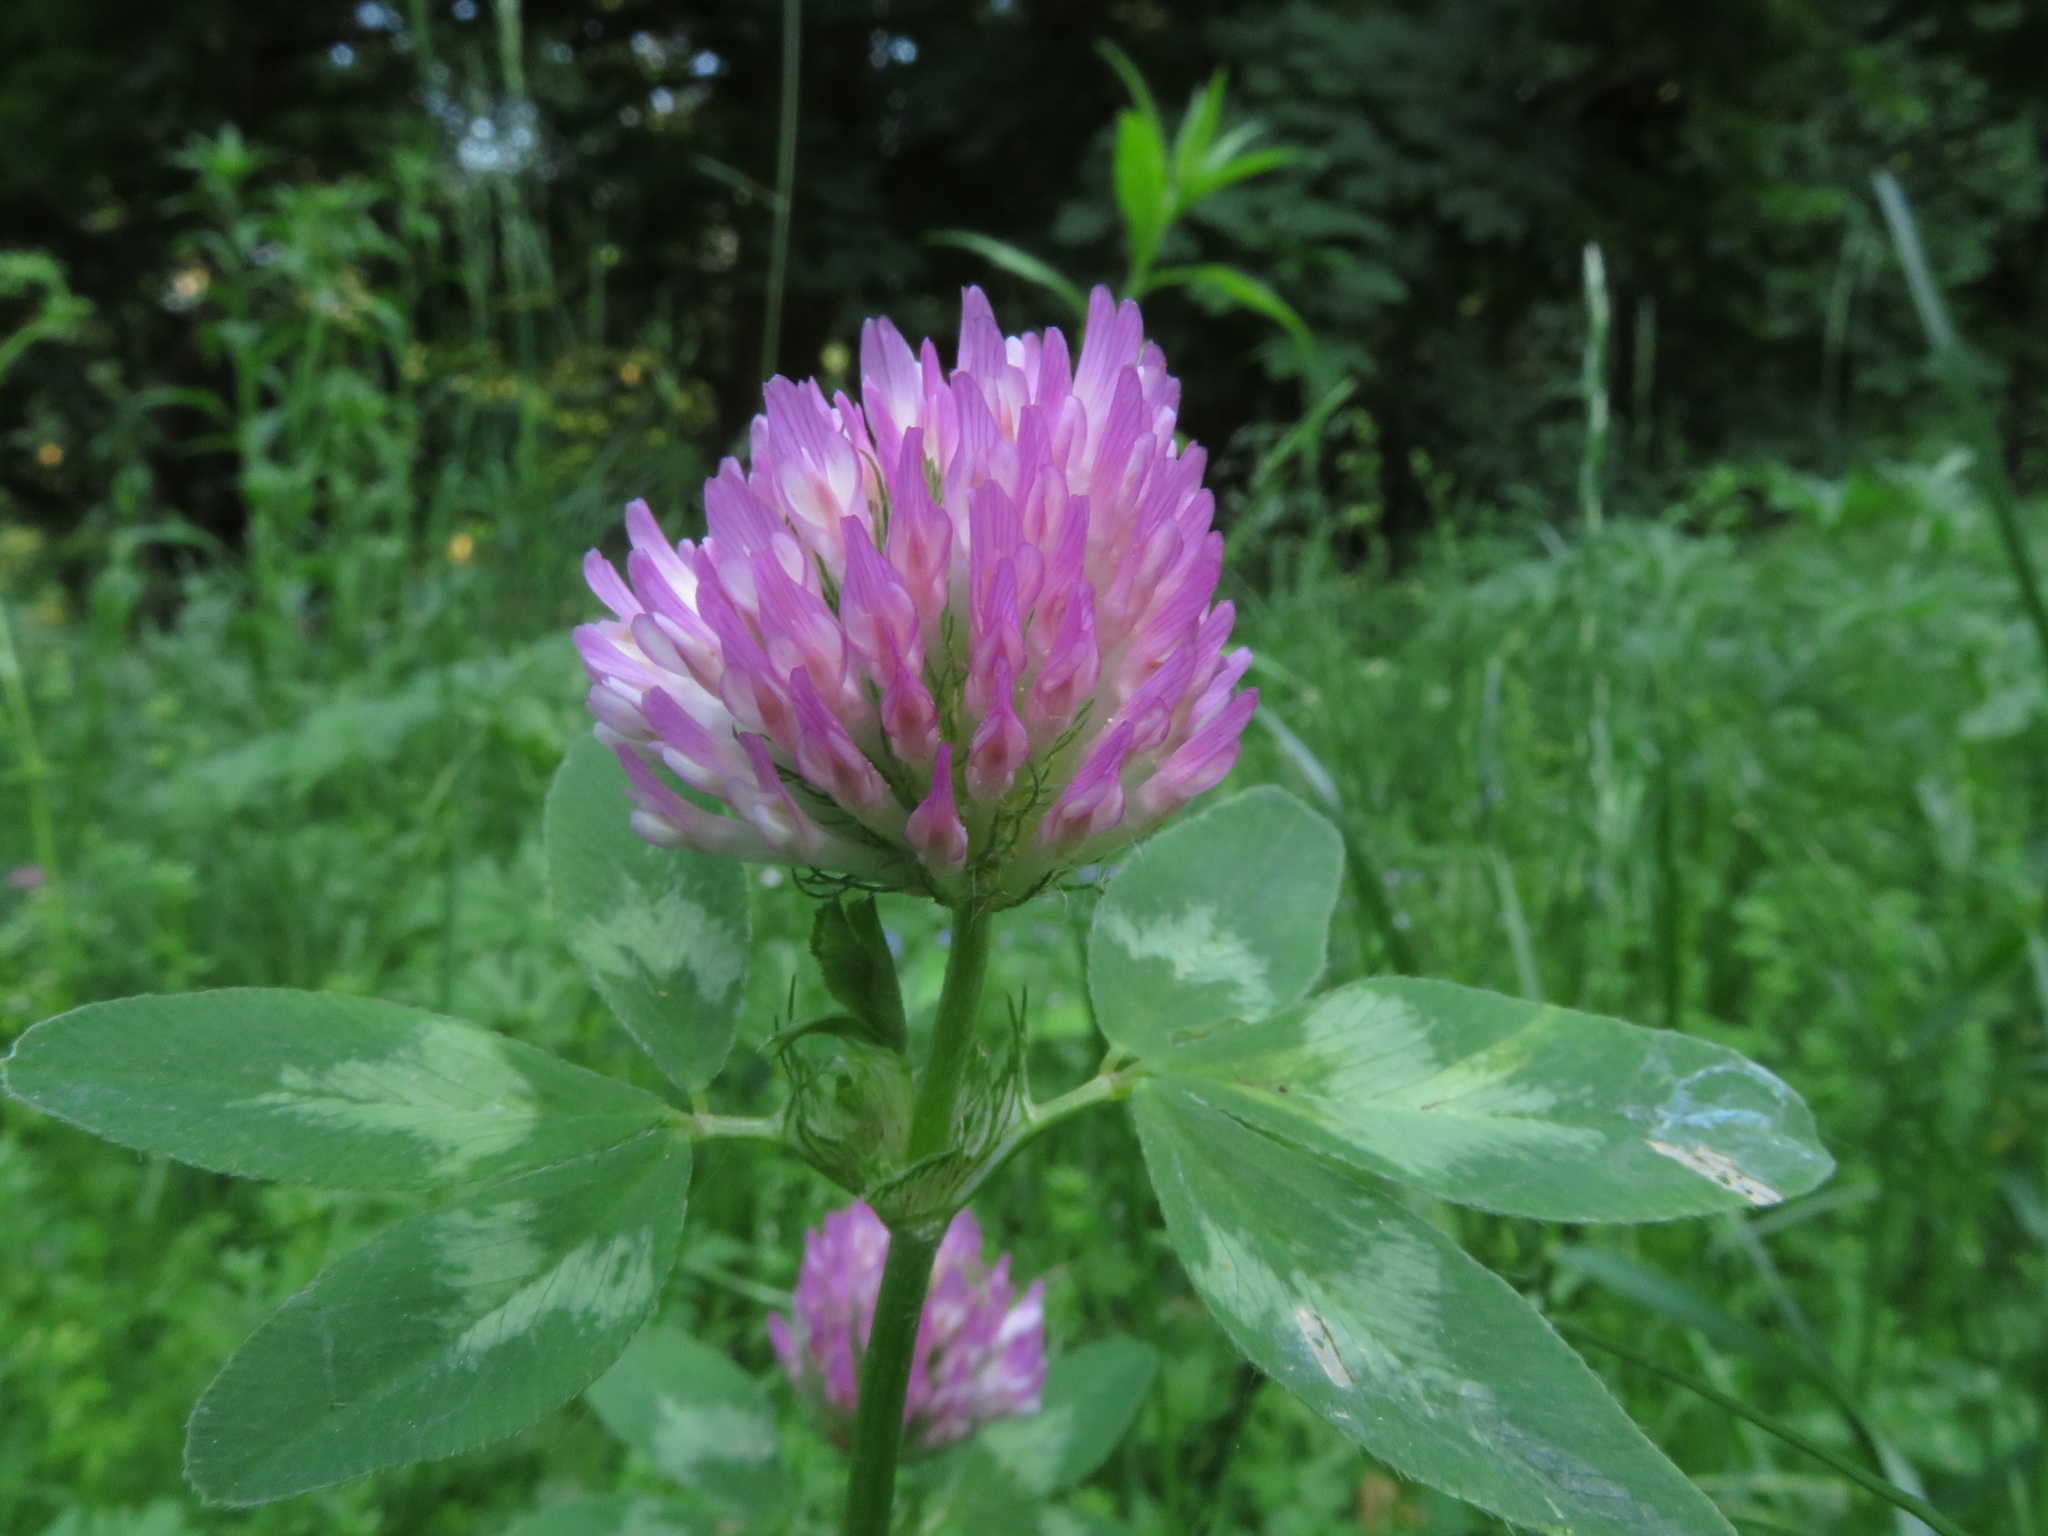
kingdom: Plantae
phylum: Tracheophyta
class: Magnoliopsida
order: Fabales
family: Fabaceae
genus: Trifolium
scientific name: Trifolium pratense
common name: Red clover
